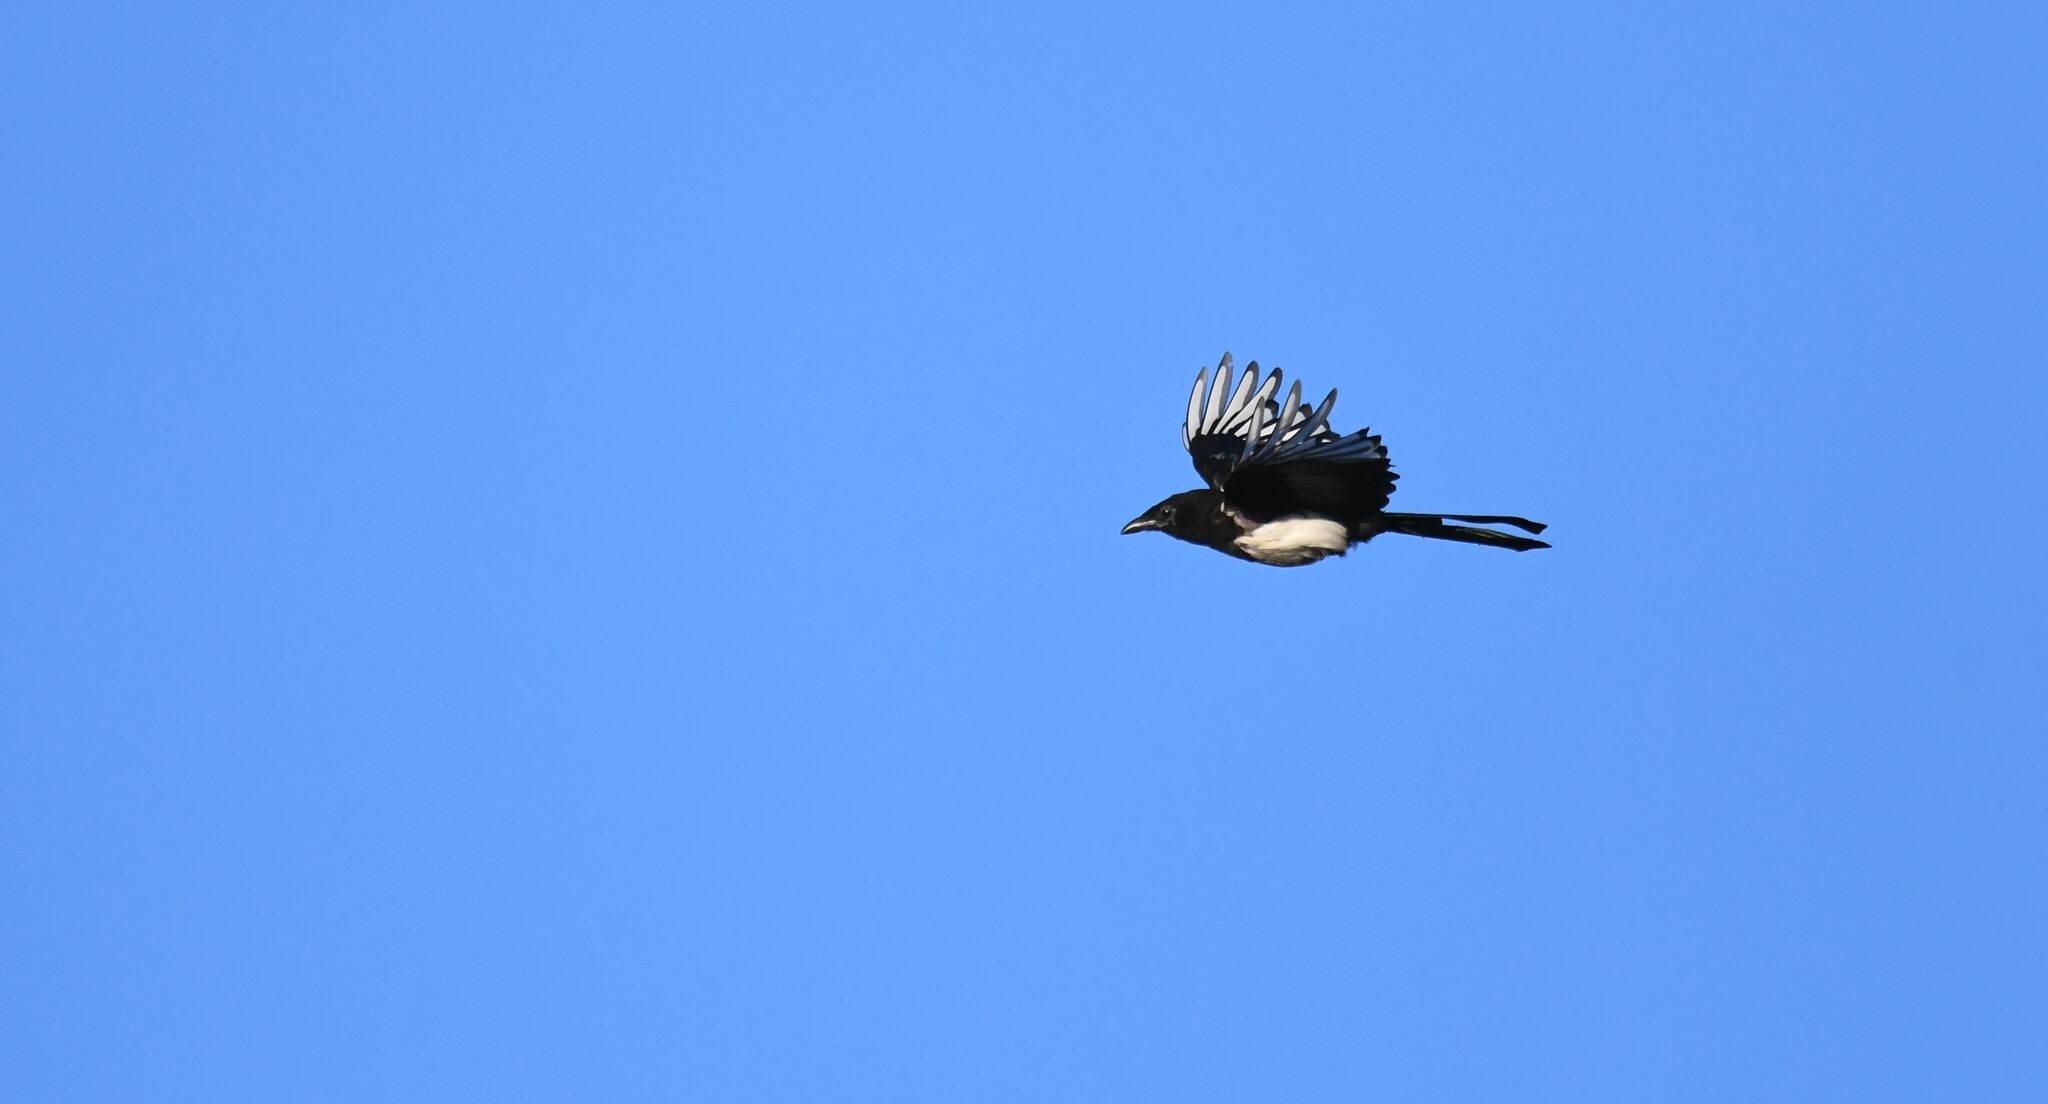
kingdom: Animalia
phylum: Chordata
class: Aves
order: Passeriformes
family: Corvidae
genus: Pica
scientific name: Pica pica
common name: Eurasian magpie
